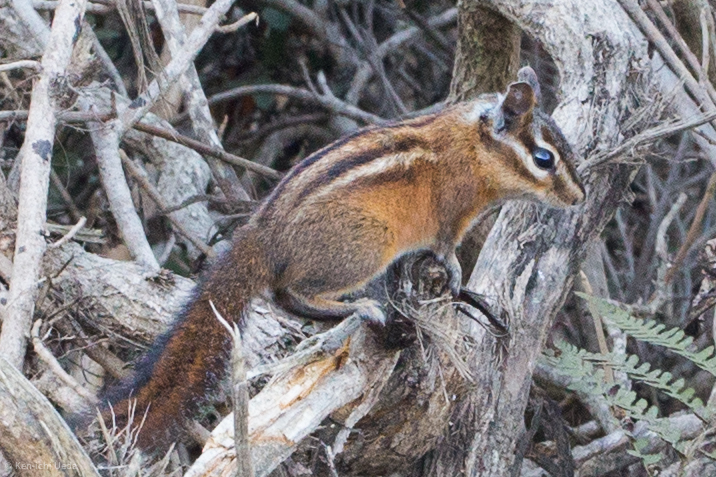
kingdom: Animalia
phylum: Chordata
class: Mammalia
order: Rodentia
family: Sciuridae
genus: Tamias
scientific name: Tamias sonomae
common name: Sonoma chipmunk
